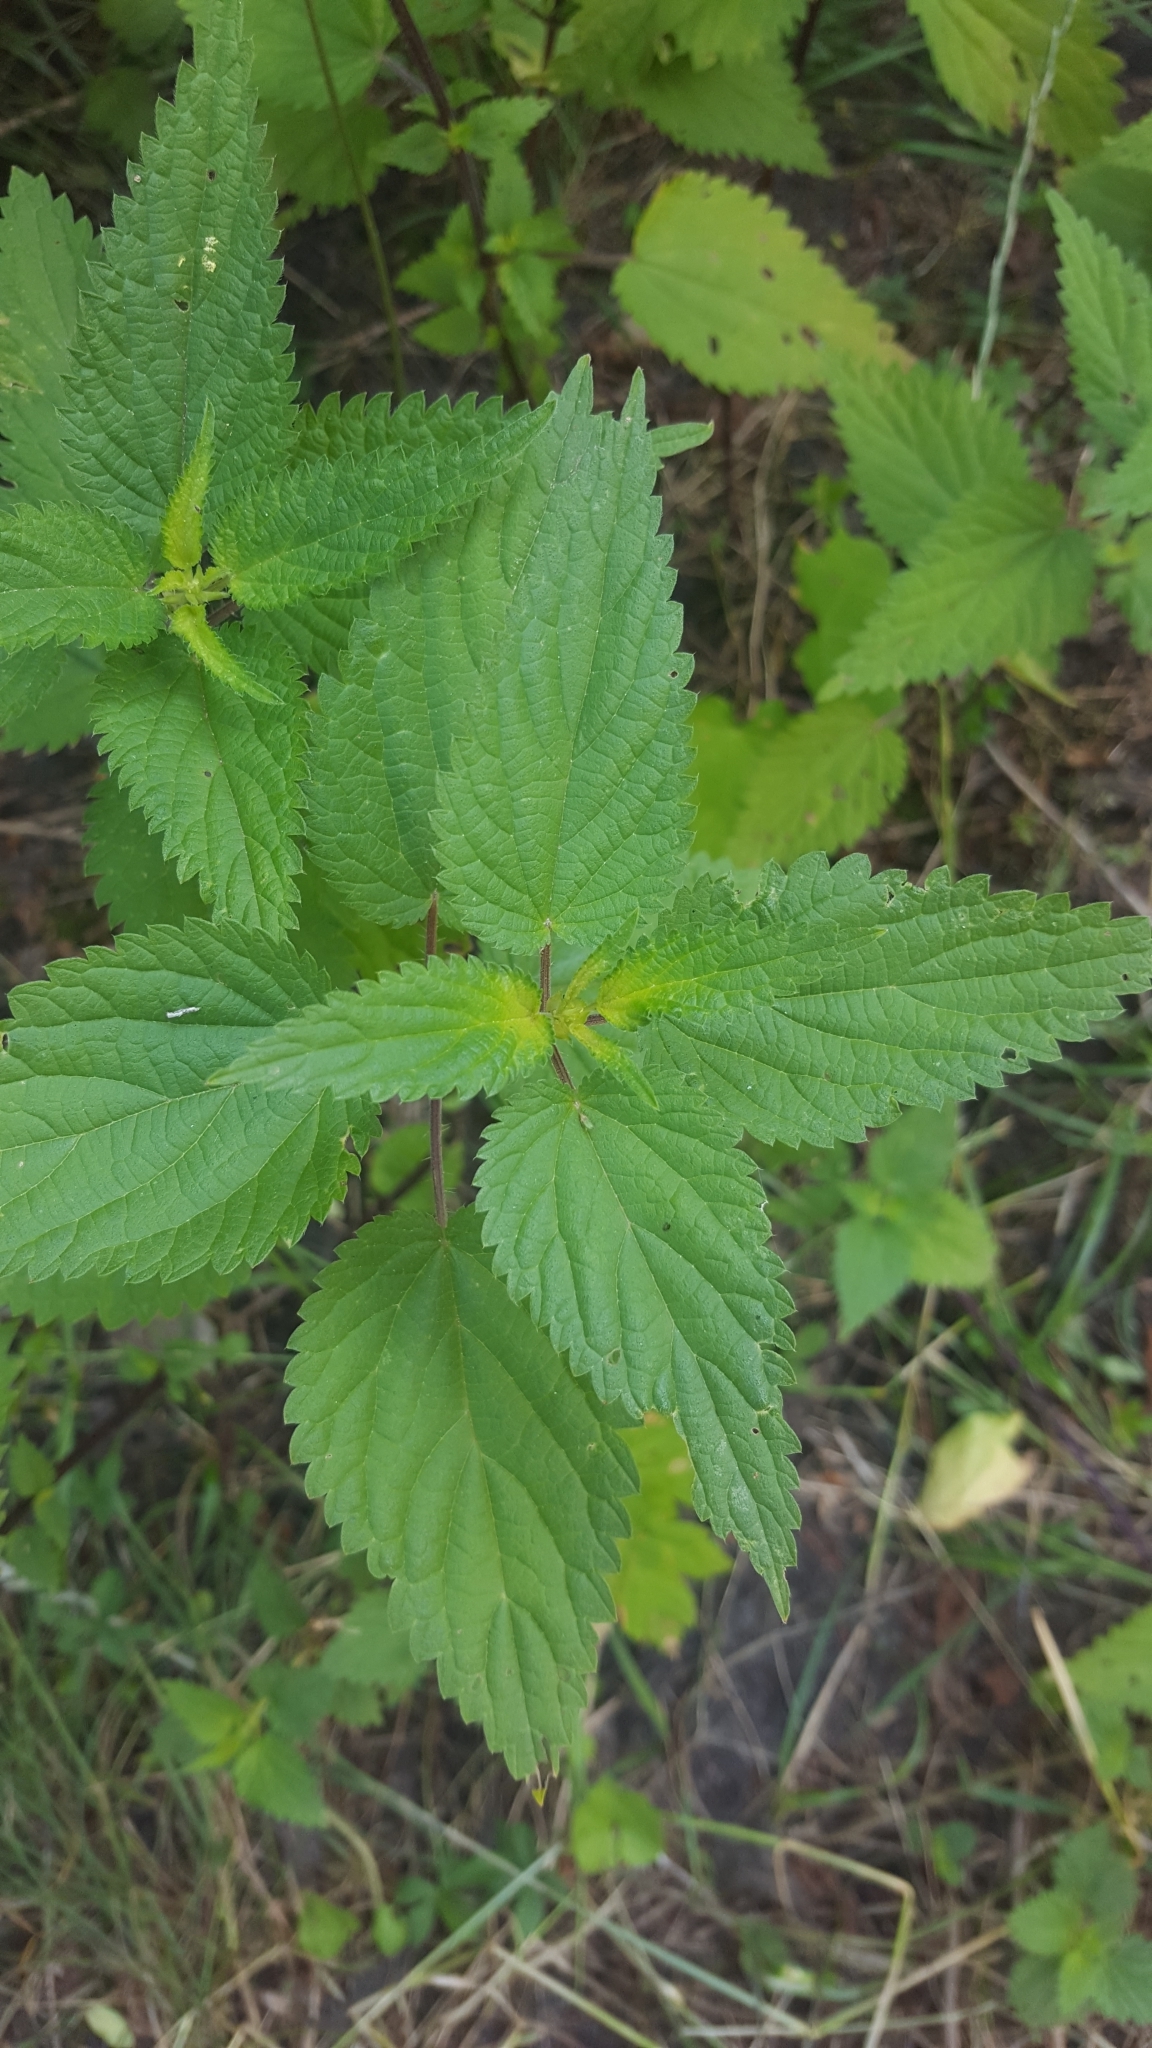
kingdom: Plantae
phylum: Tracheophyta
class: Magnoliopsida
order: Rosales
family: Urticaceae
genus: Urtica
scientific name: Urtica dioica
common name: Common nettle
